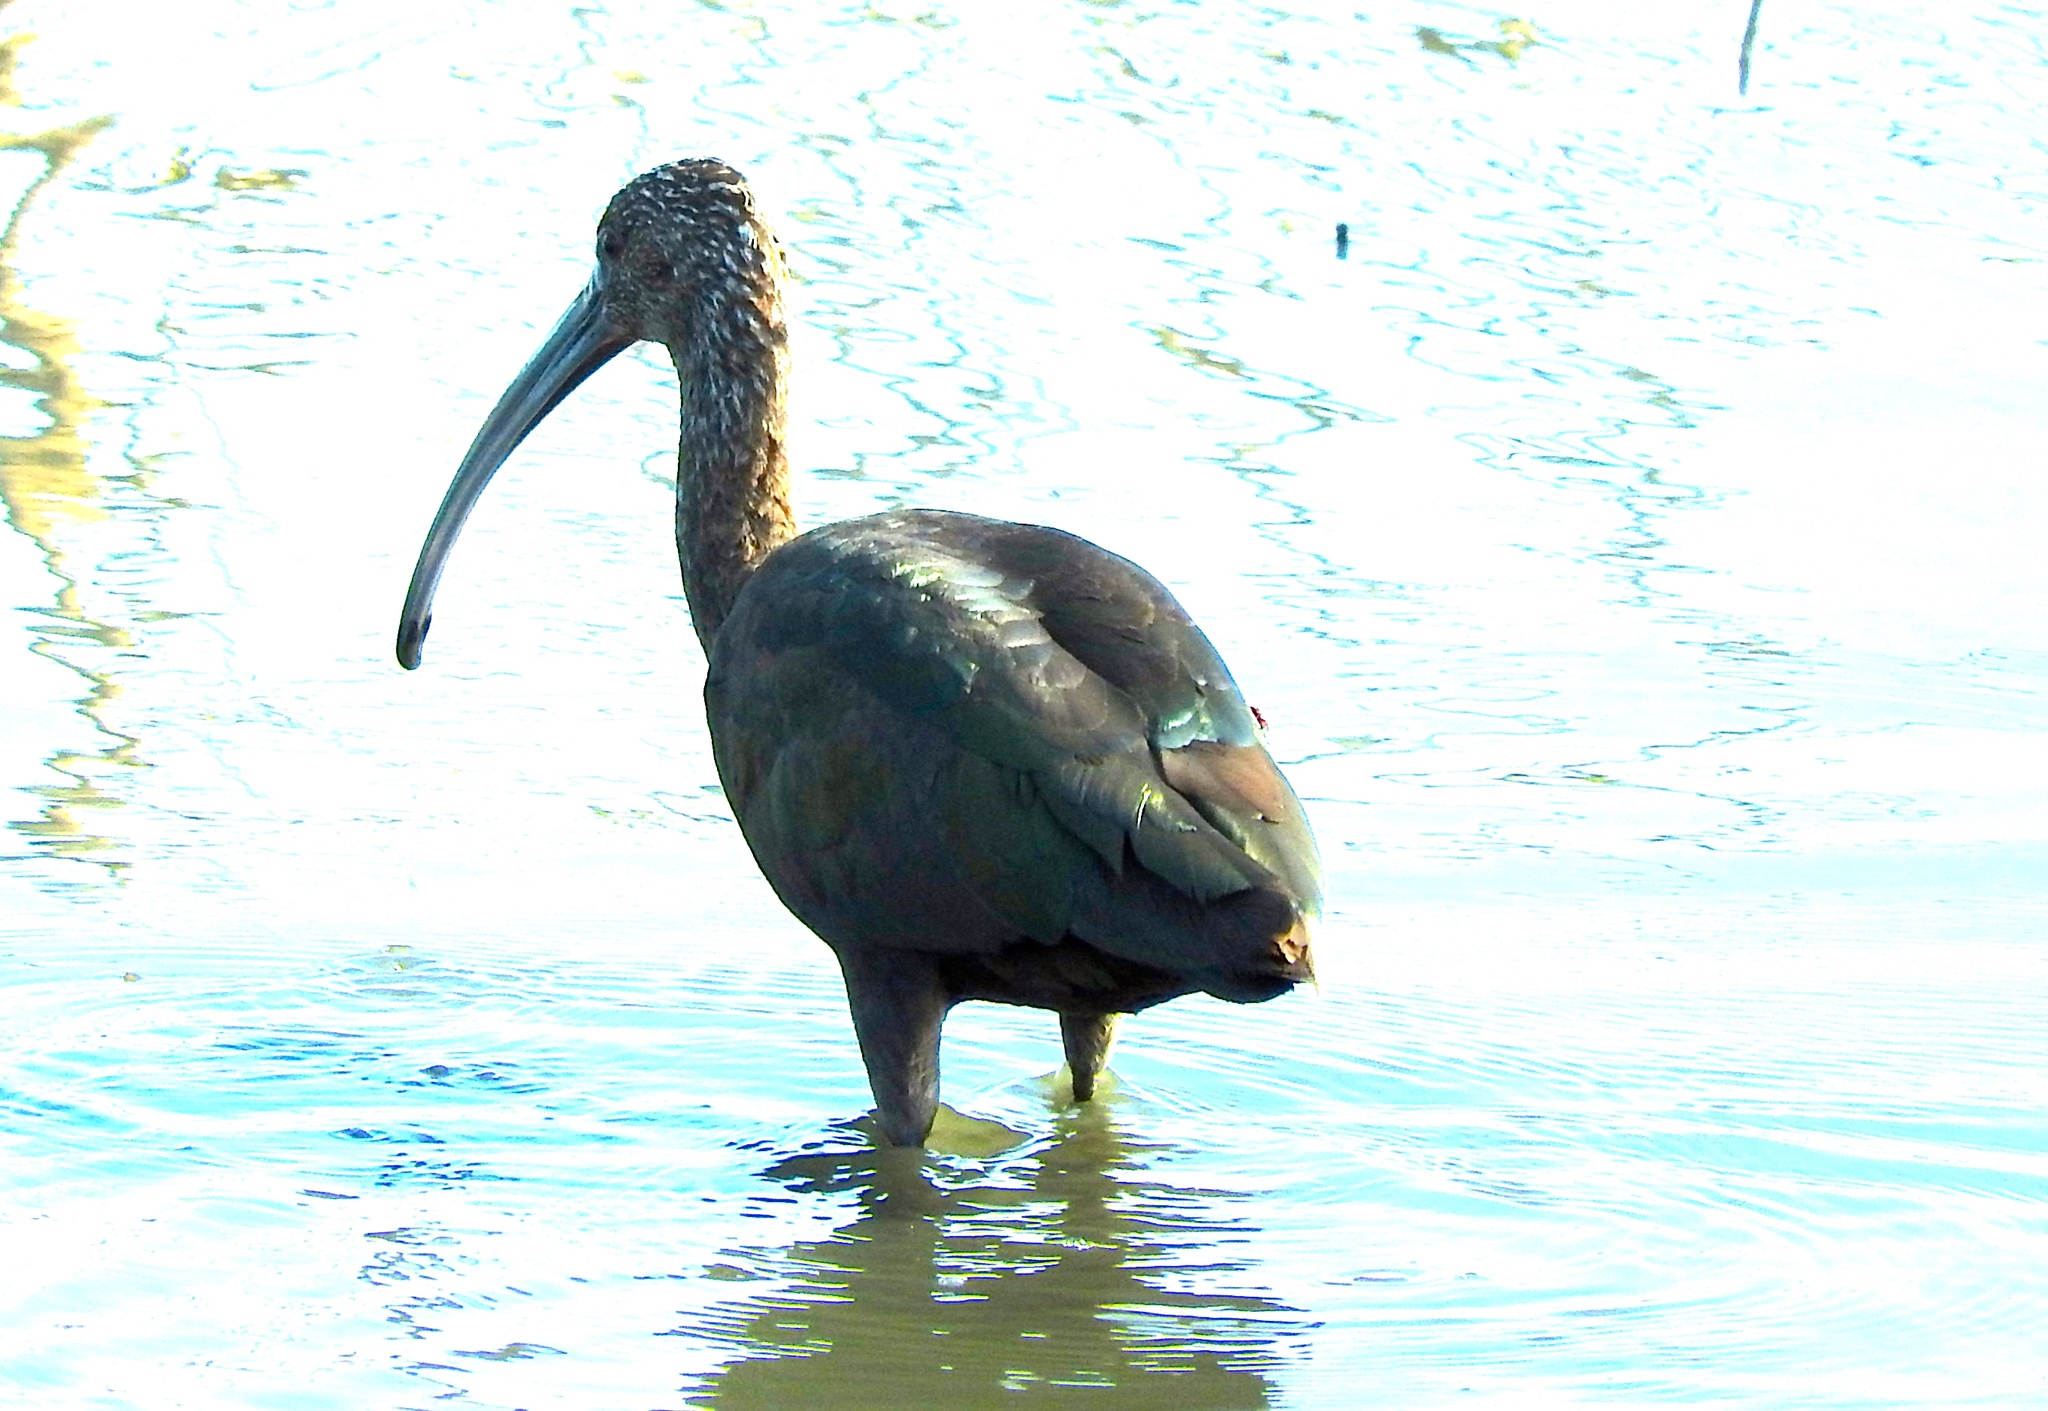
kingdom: Animalia
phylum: Chordata
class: Aves
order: Pelecaniformes
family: Threskiornithidae
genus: Plegadis
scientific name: Plegadis chihi
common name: White-faced ibis
